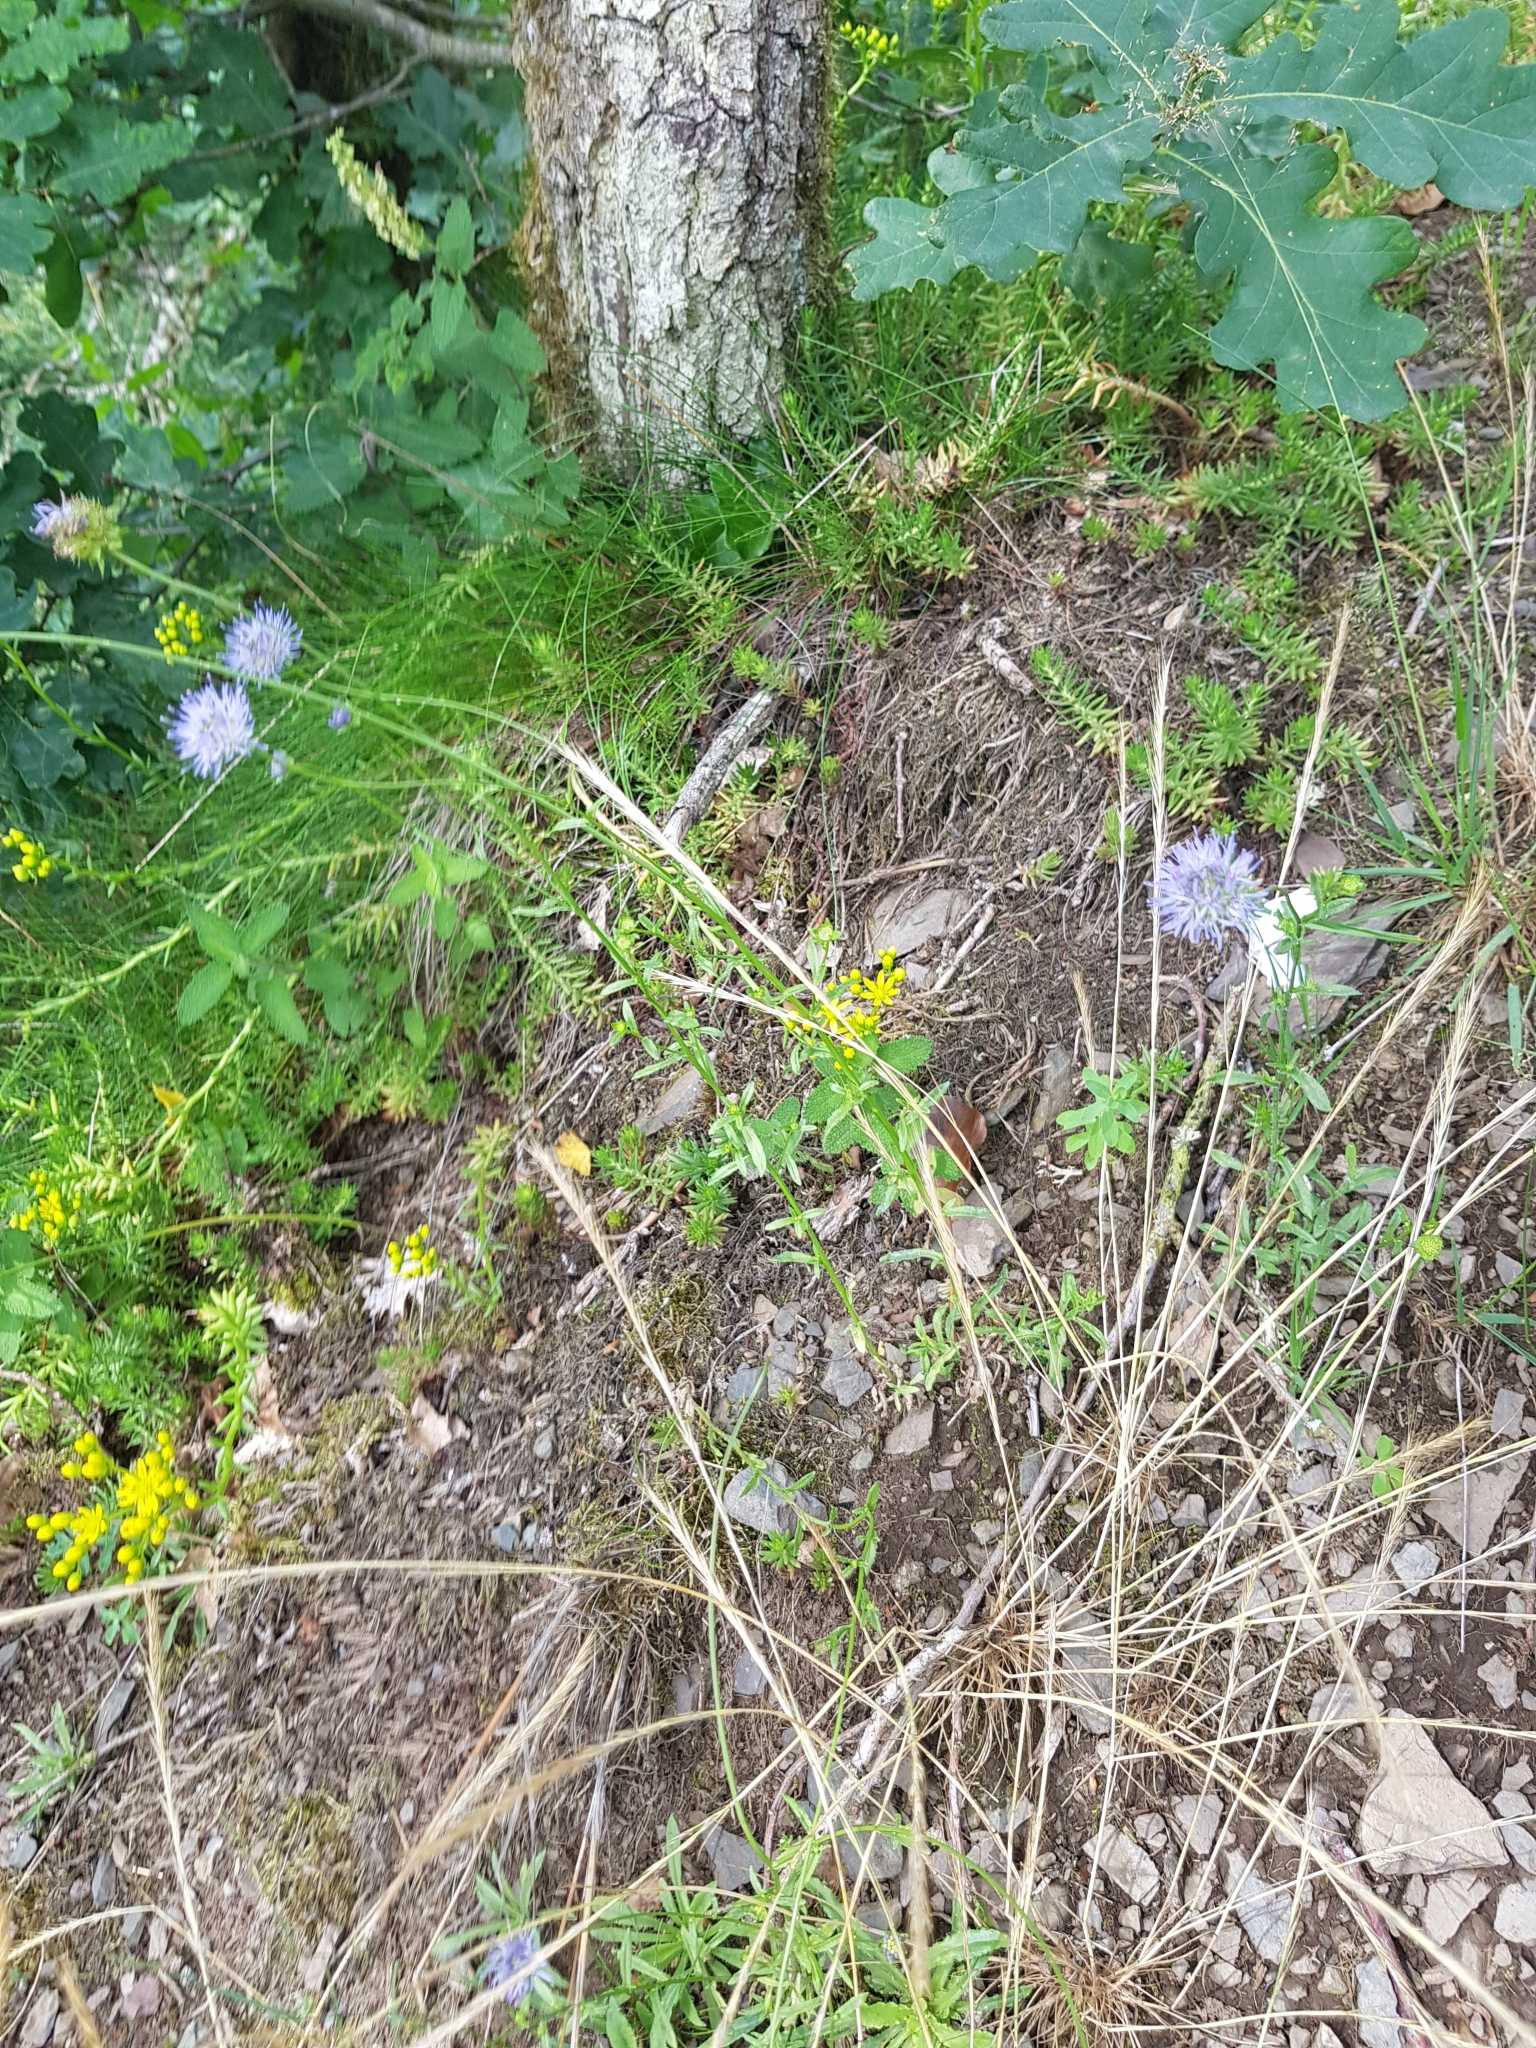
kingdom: Plantae
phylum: Tracheophyta
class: Magnoliopsida
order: Asterales
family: Campanulaceae
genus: Jasione
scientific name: Jasione montana
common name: Sheep's-bit
